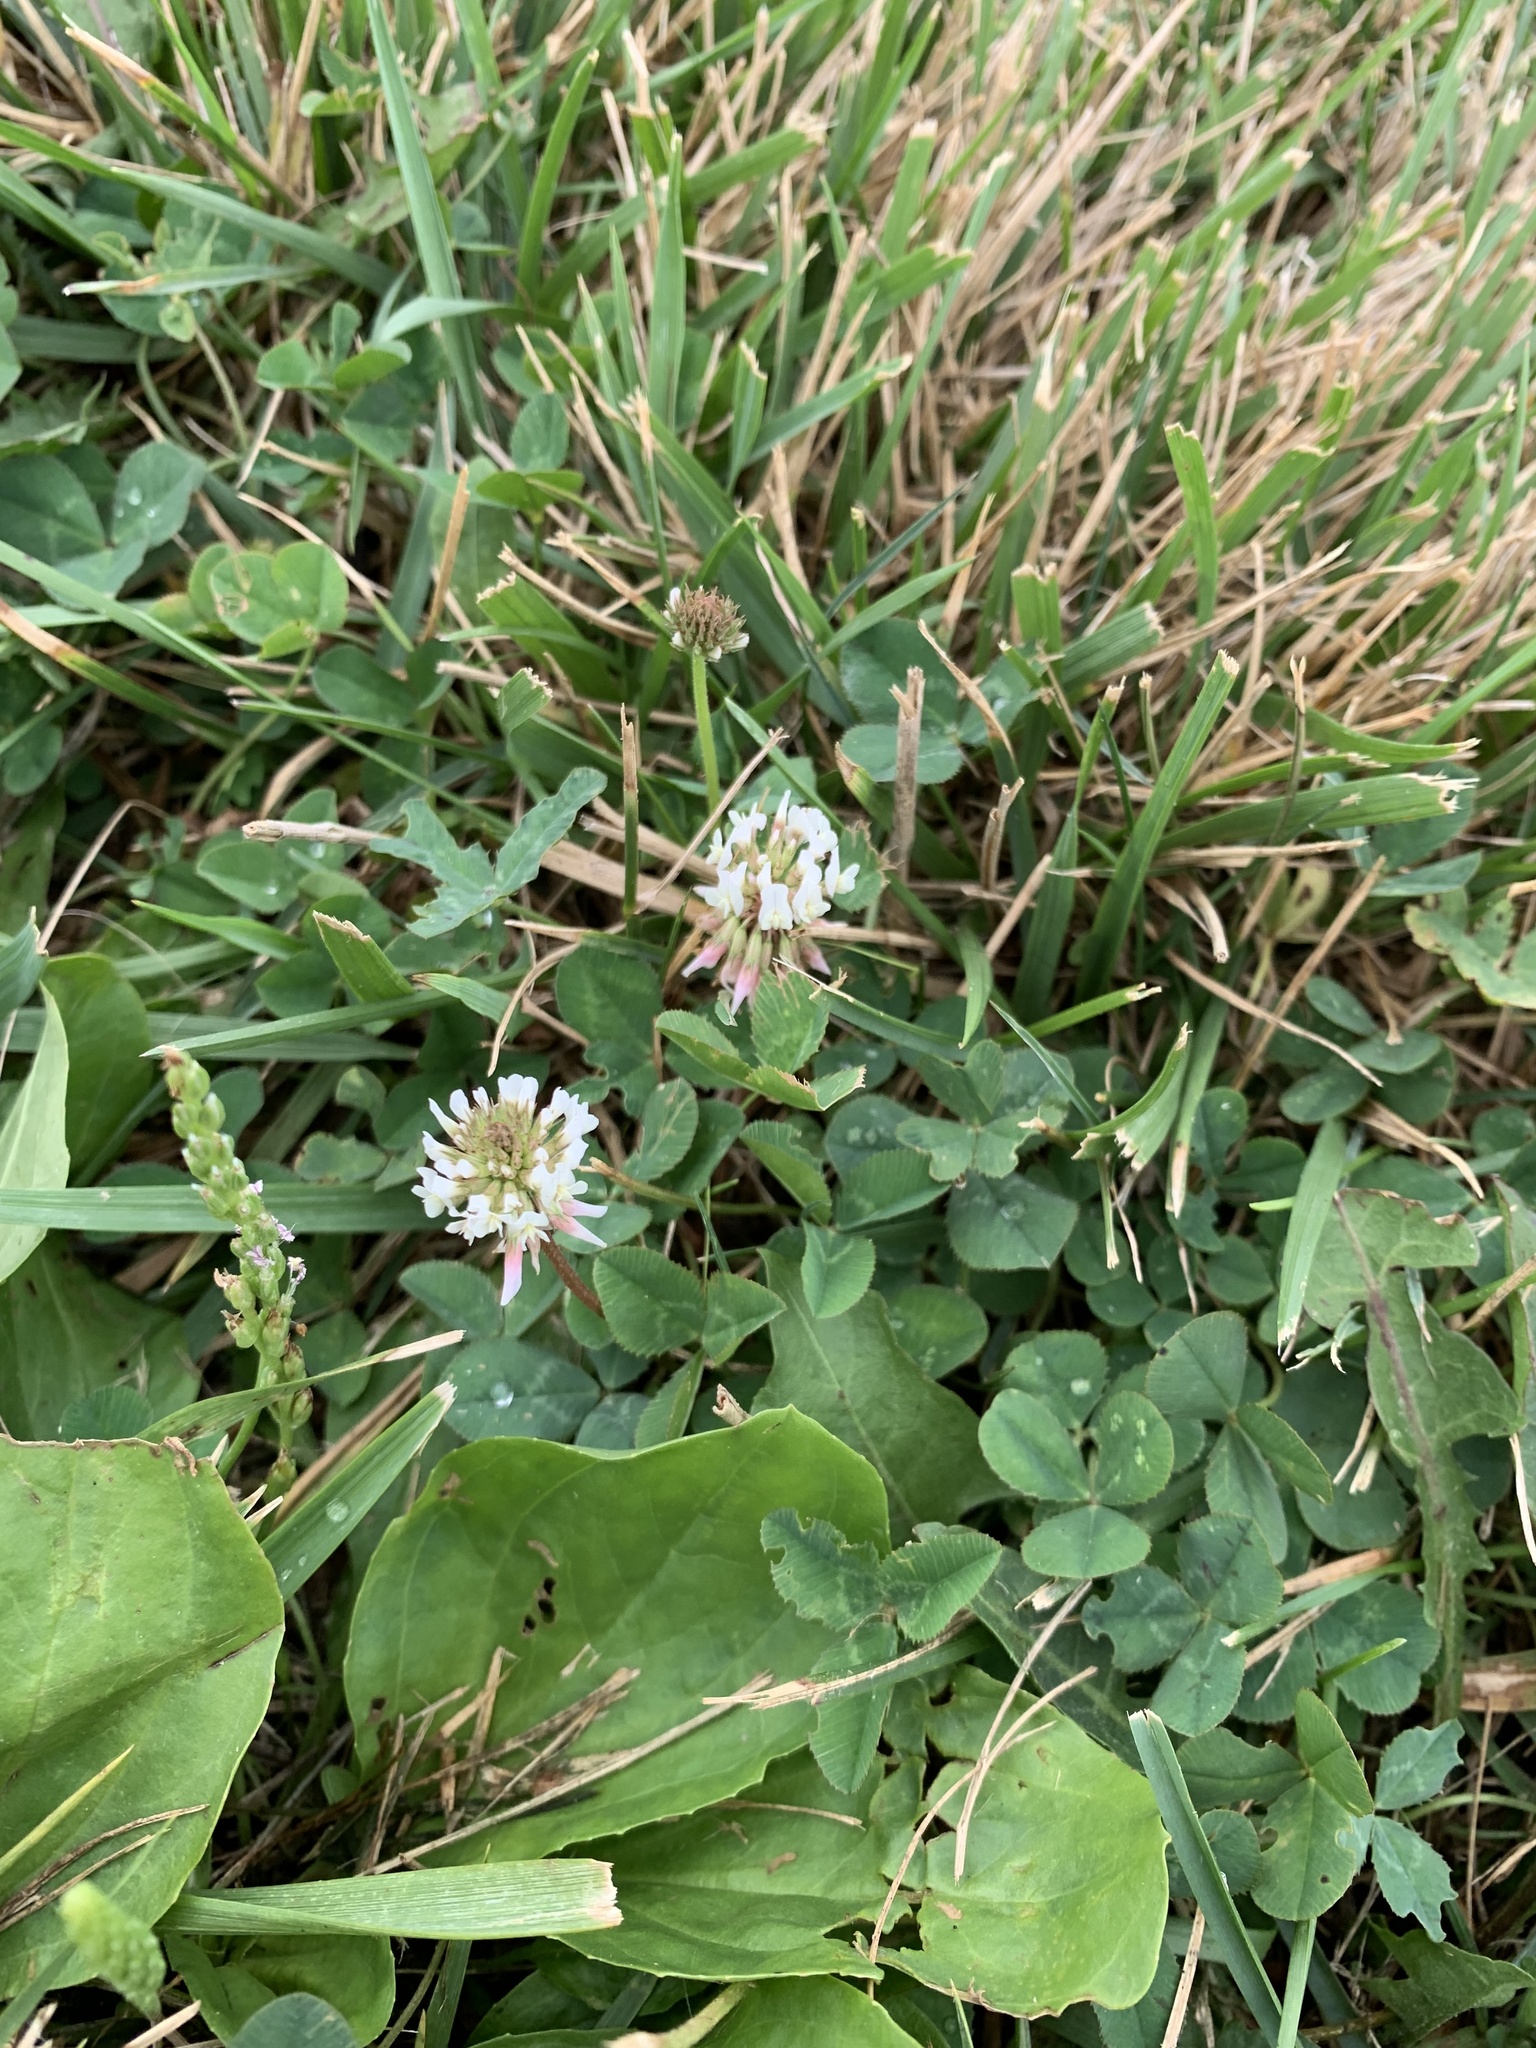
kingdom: Plantae
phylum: Tracheophyta
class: Magnoliopsida
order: Fabales
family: Fabaceae
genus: Trifolium
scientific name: Trifolium repens
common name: White clover
